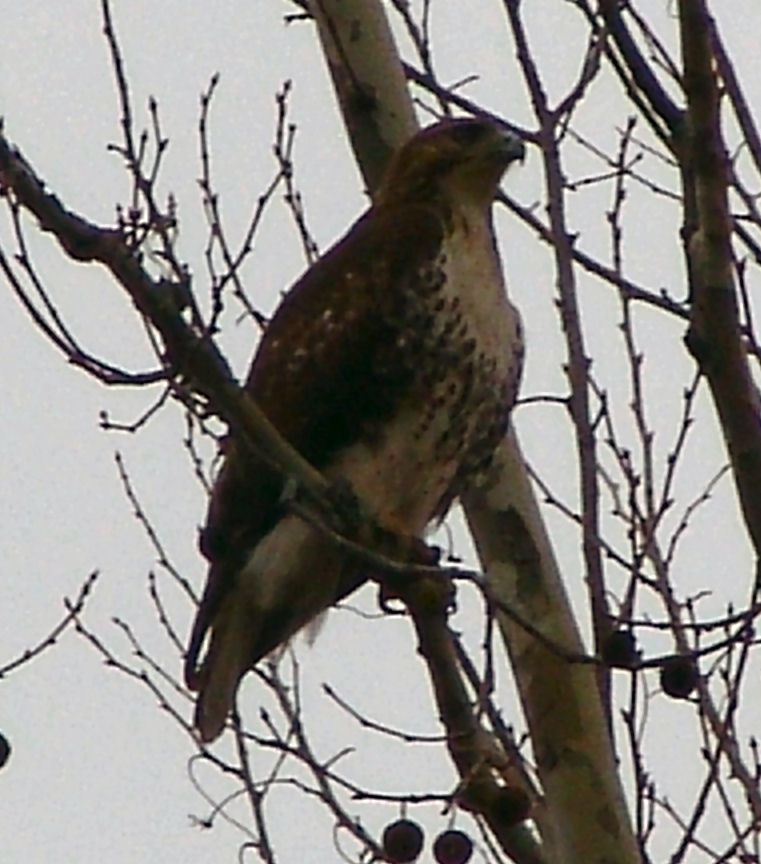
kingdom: Animalia
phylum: Chordata
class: Aves
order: Accipitriformes
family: Accipitridae
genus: Buteo
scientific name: Buteo jamaicensis
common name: Red-tailed hawk
